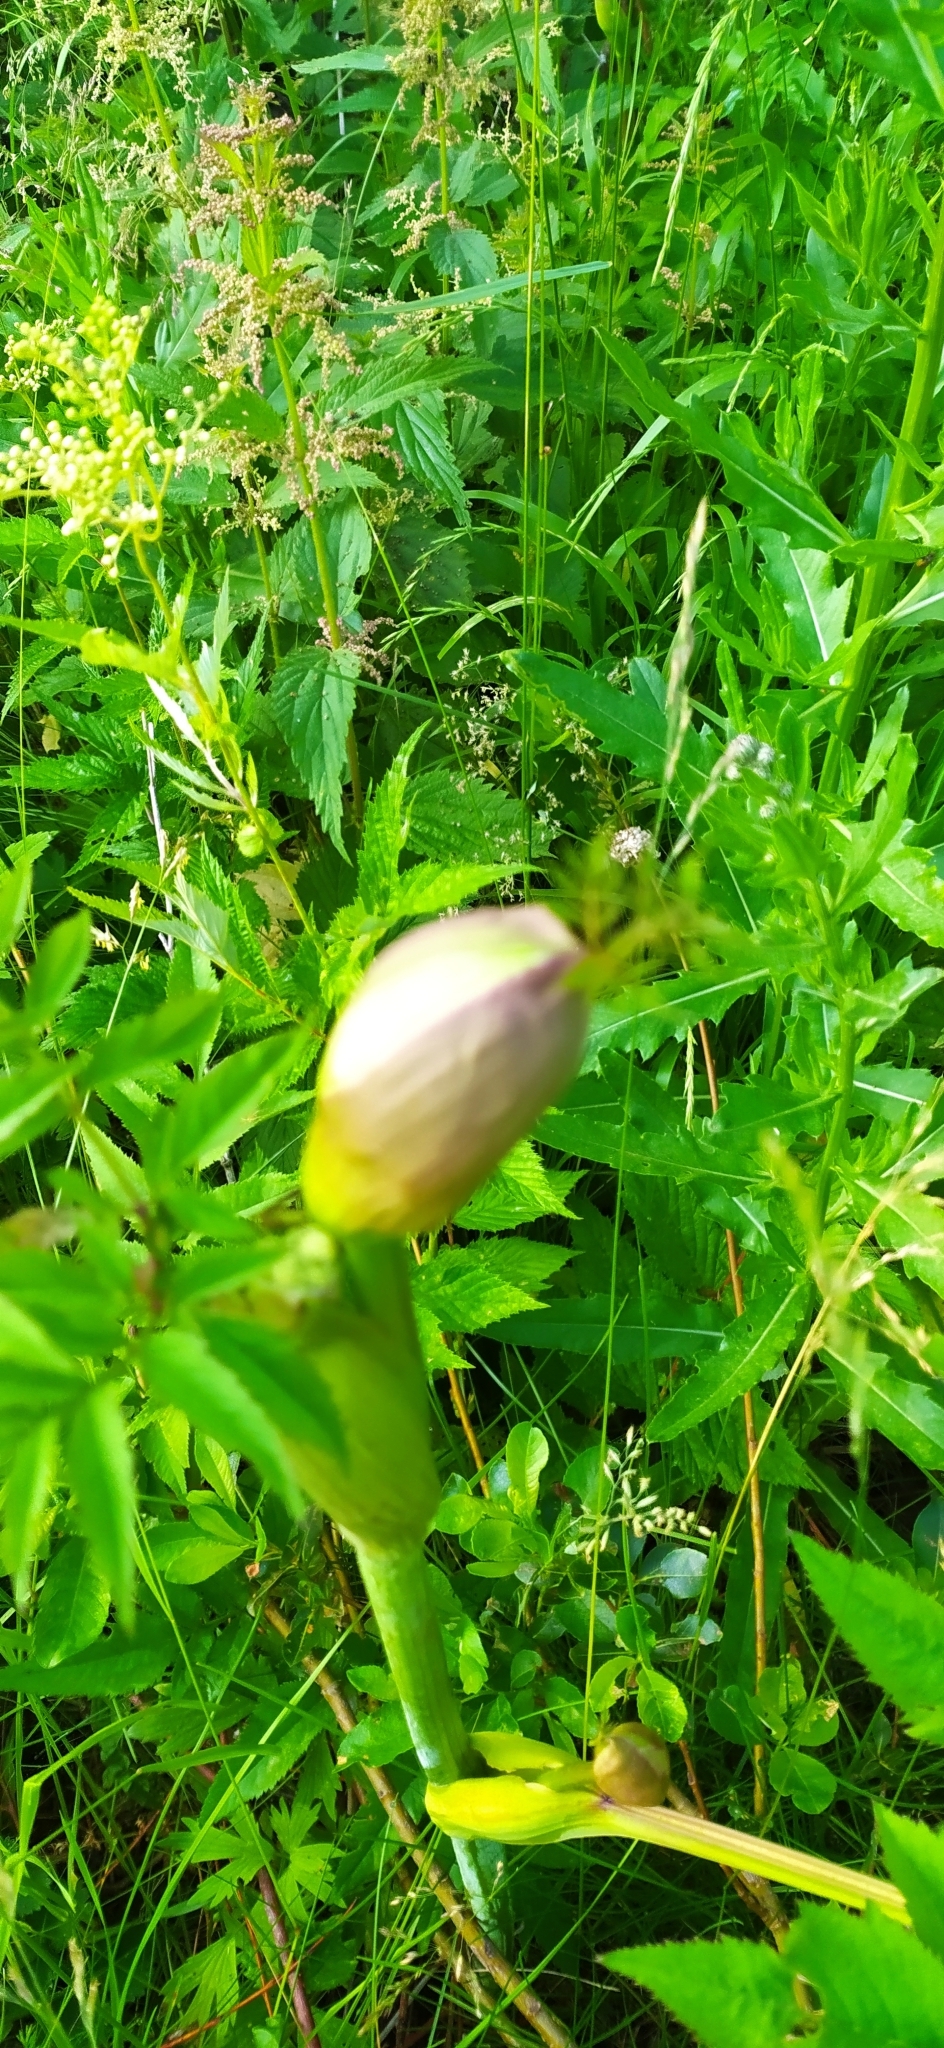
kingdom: Plantae
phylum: Tracheophyta
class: Magnoliopsida
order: Apiales
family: Apiaceae
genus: Heracleum
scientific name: Heracleum sphondylium
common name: Hogweed
